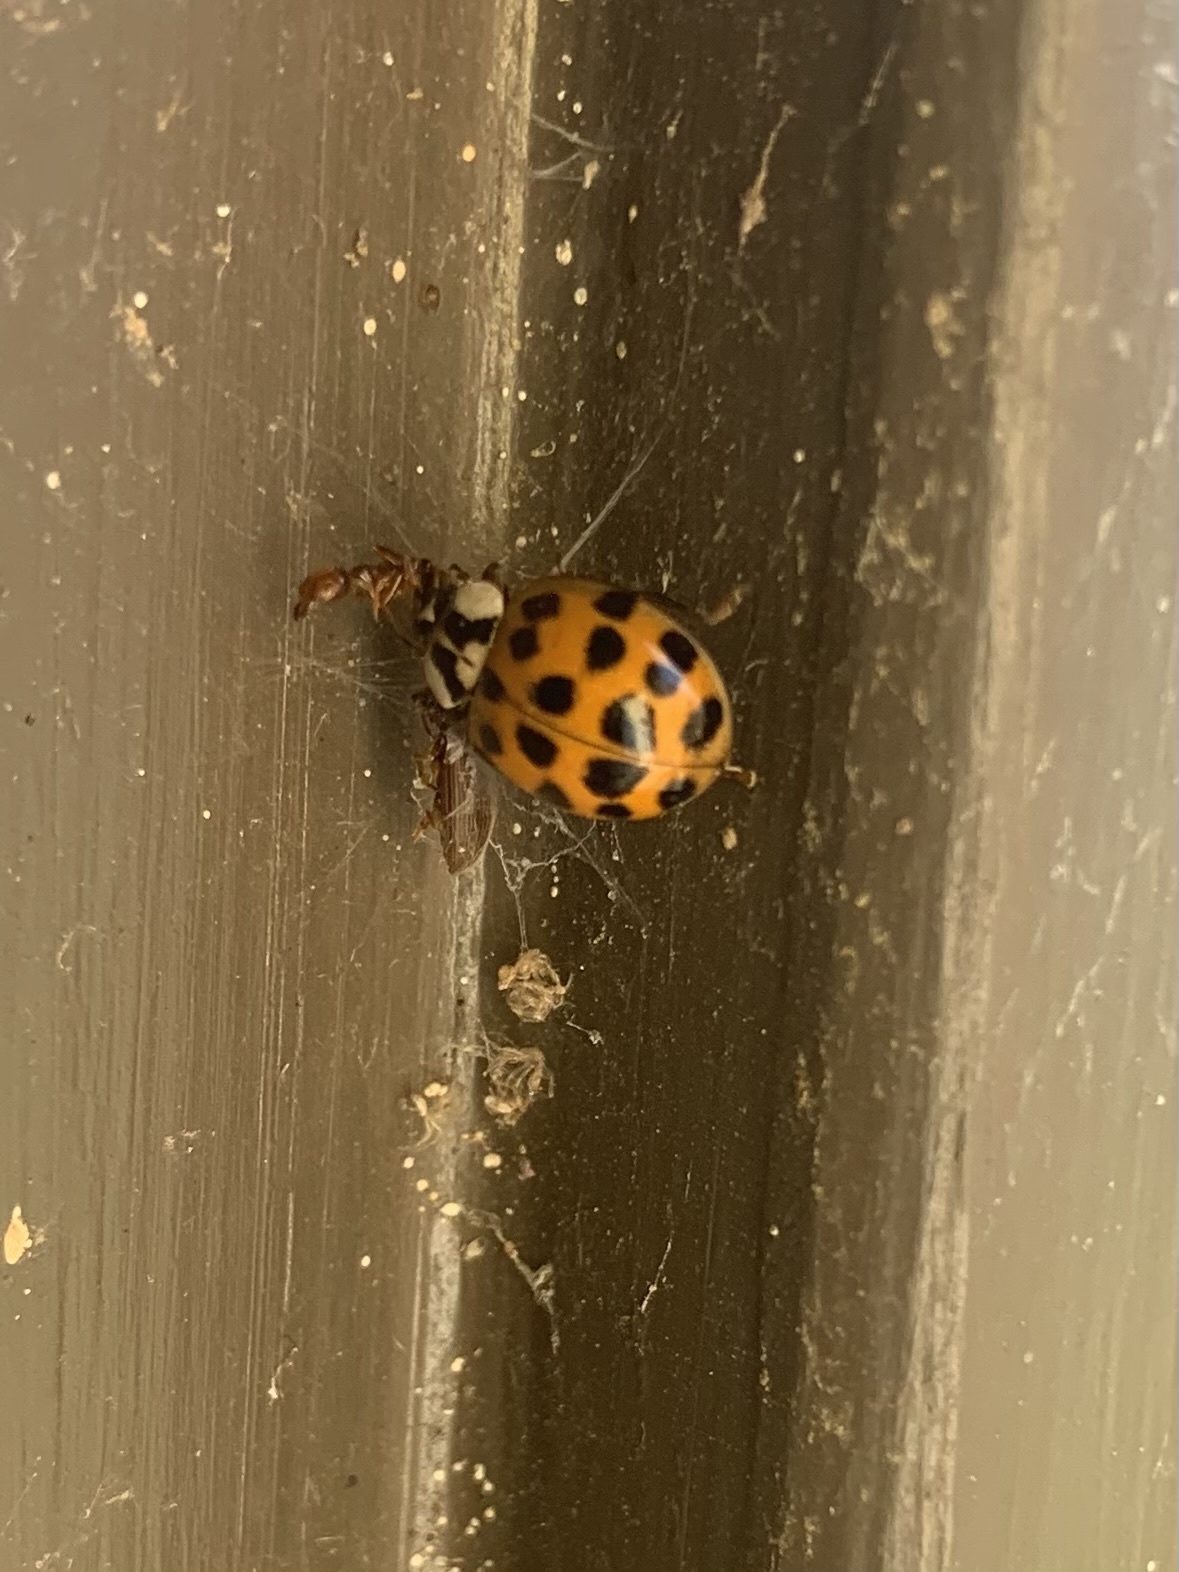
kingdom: Animalia
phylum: Arthropoda
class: Insecta
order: Coleoptera
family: Coccinellidae
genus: Harmonia
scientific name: Harmonia axyridis
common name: Harlequin ladybird
